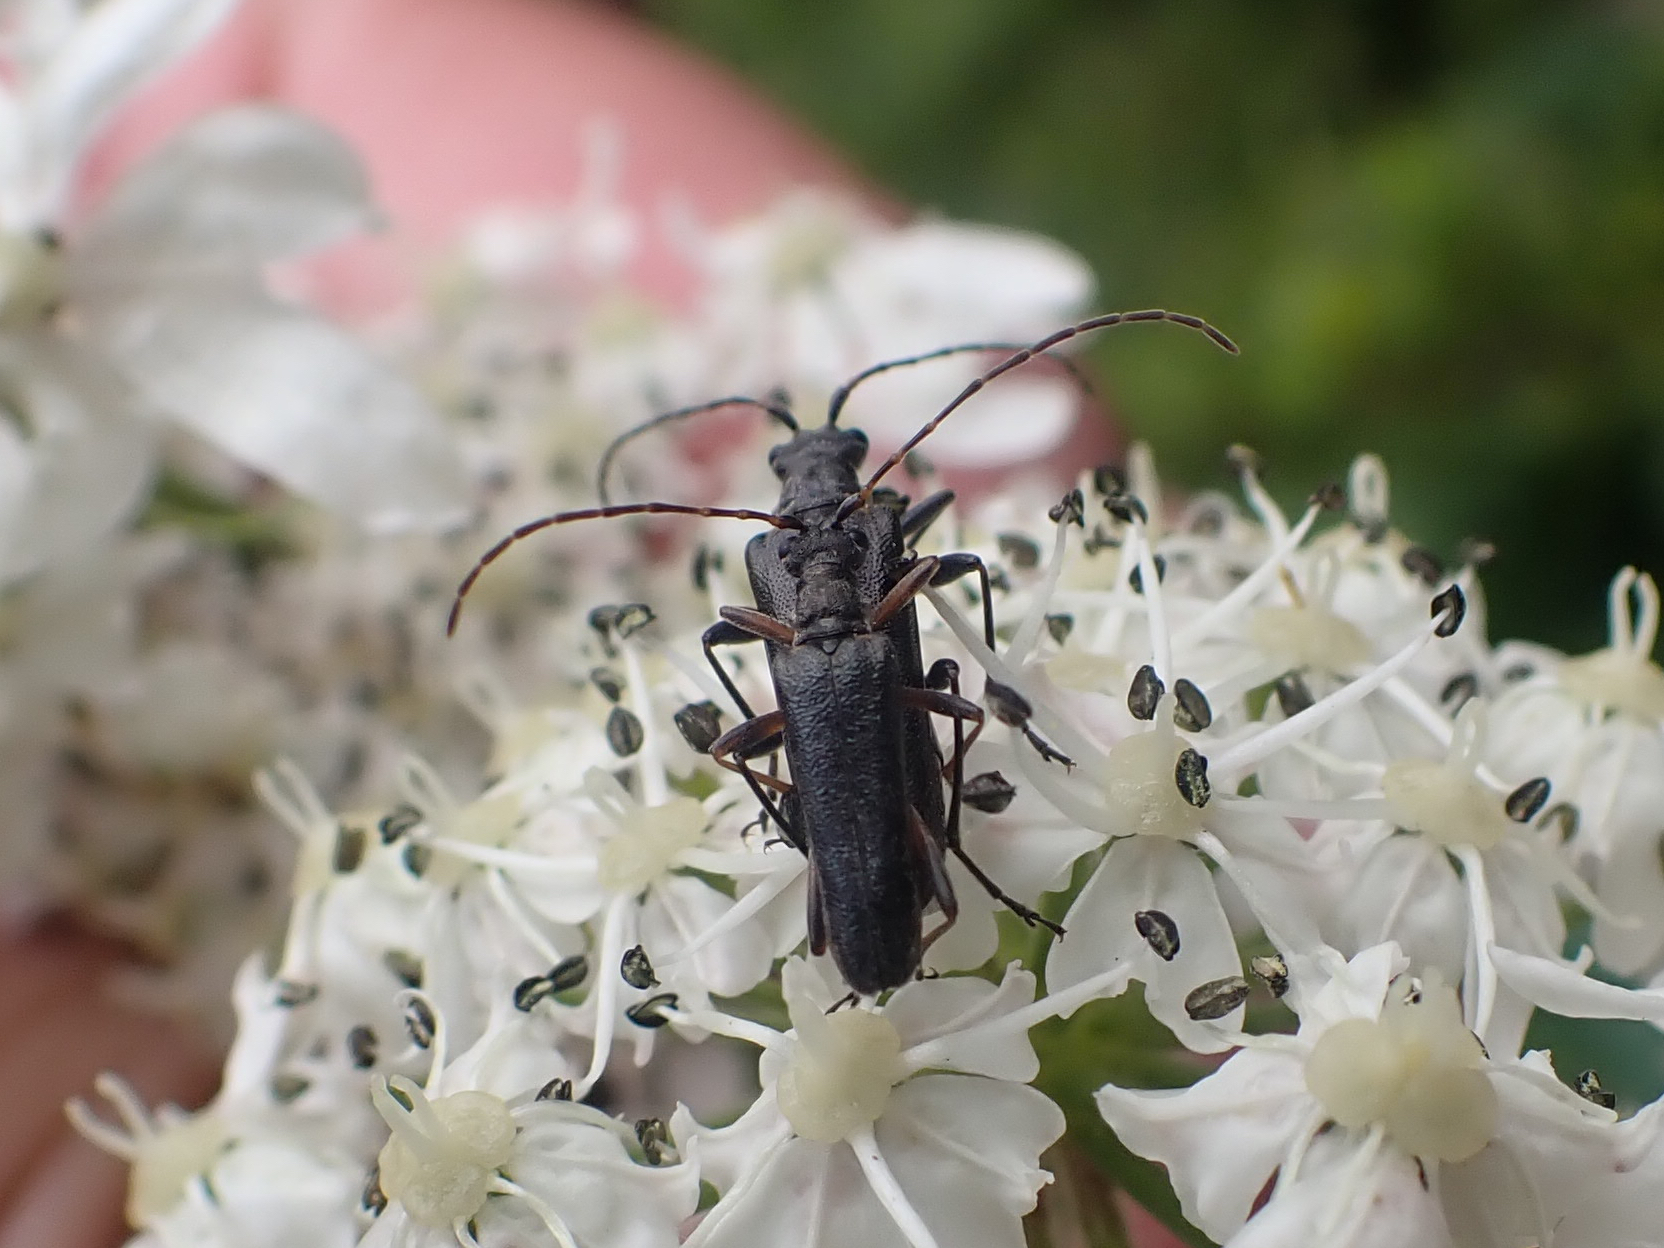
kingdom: Animalia
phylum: Arthropoda
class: Insecta
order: Coleoptera
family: Cerambycidae
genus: Leptalia
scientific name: Leptalia macilenta
